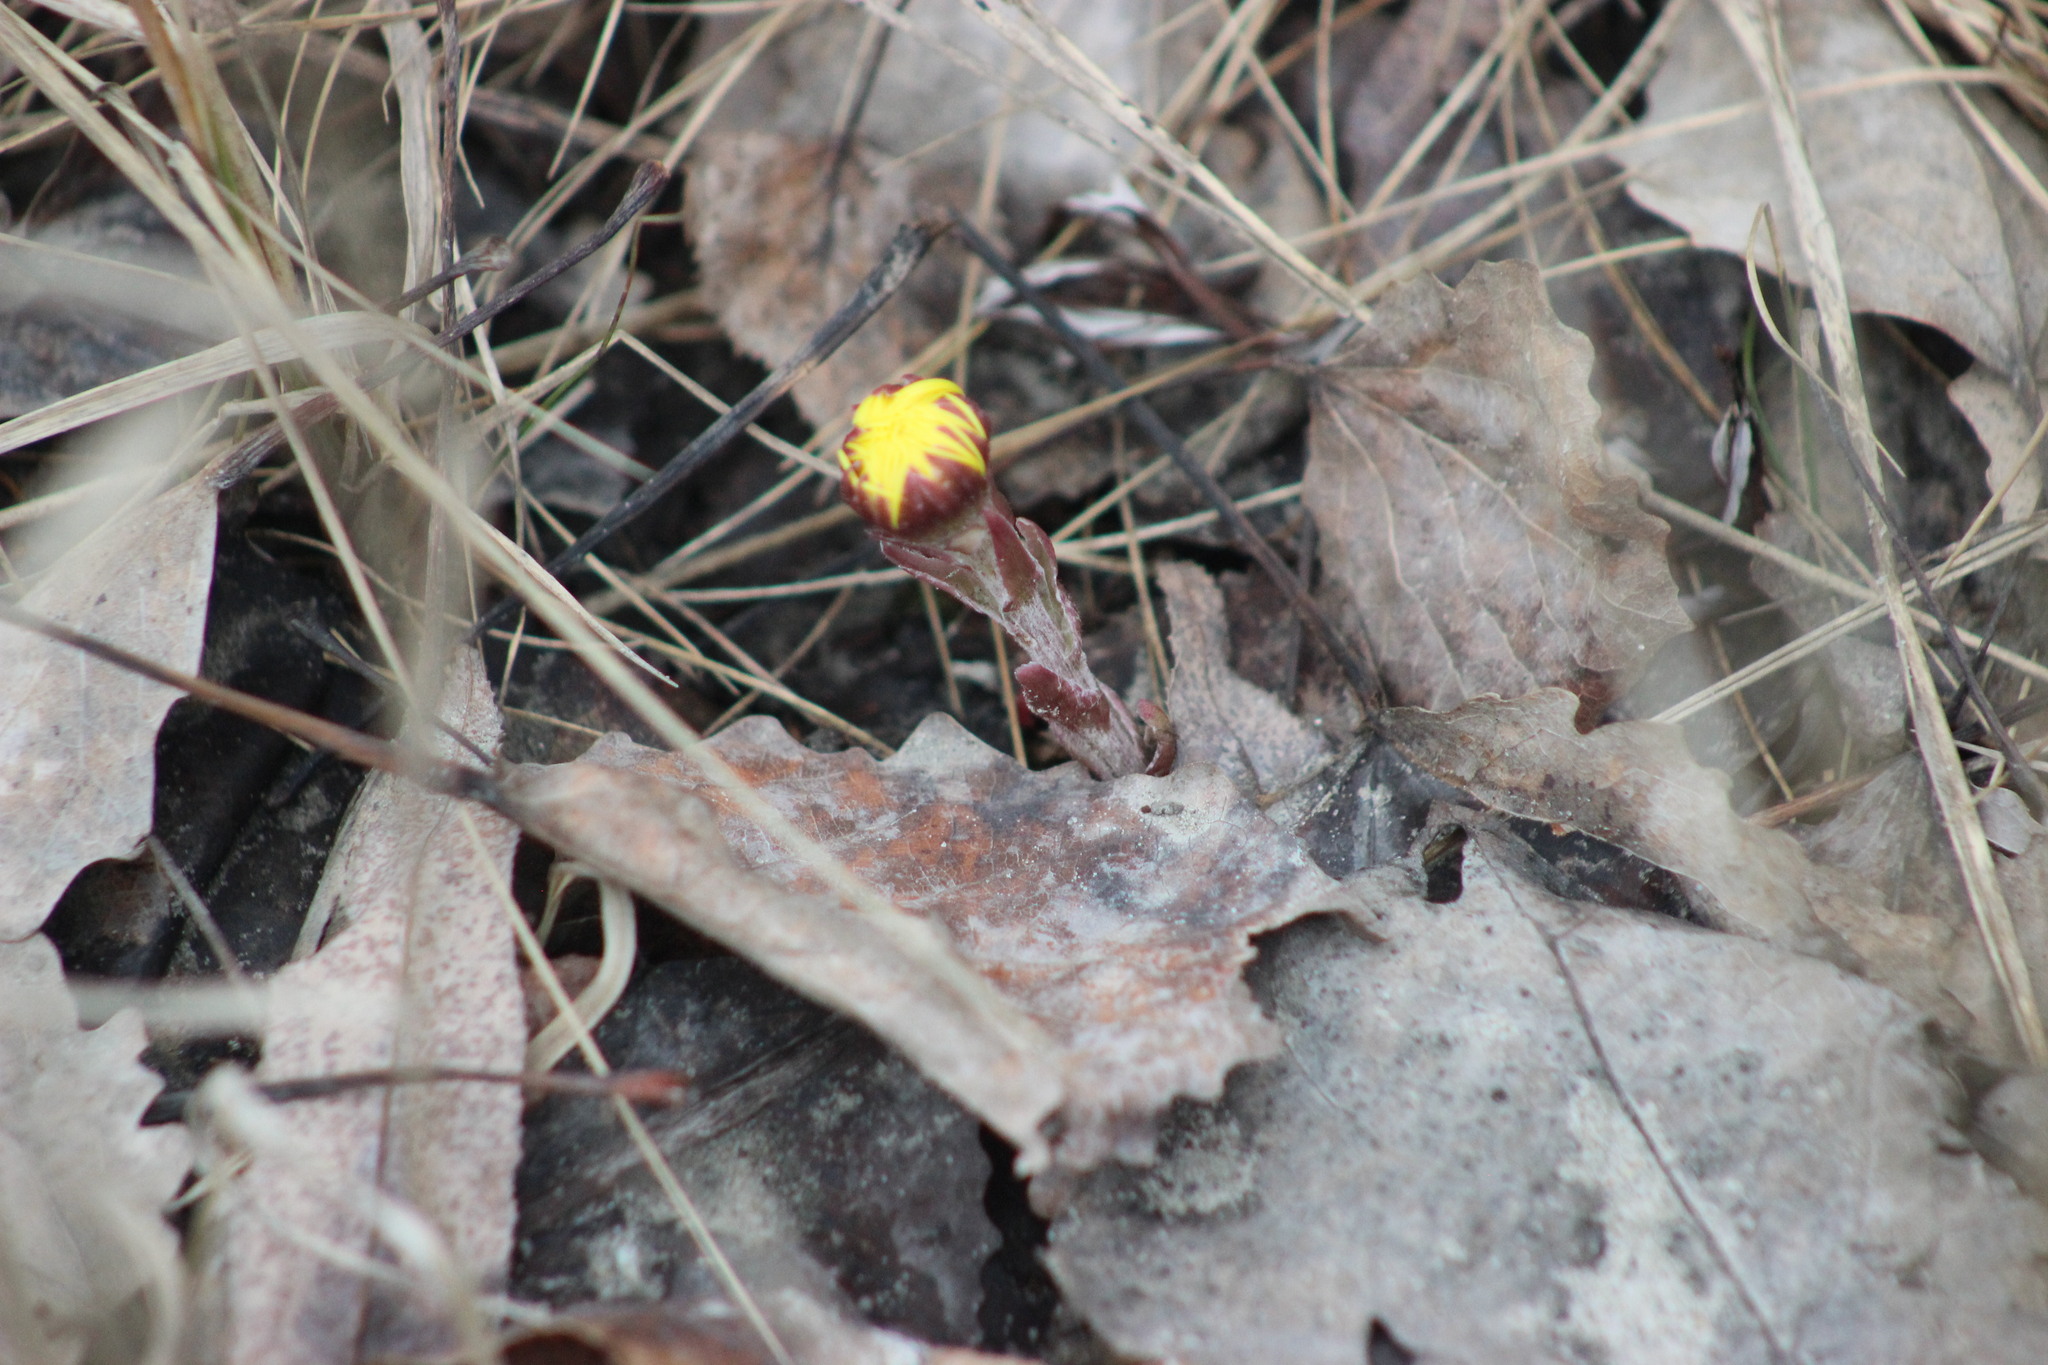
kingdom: Plantae
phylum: Tracheophyta
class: Magnoliopsida
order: Asterales
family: Asteraceae
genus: Tussilago
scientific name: Tussilago farfara
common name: Coltsfoot
